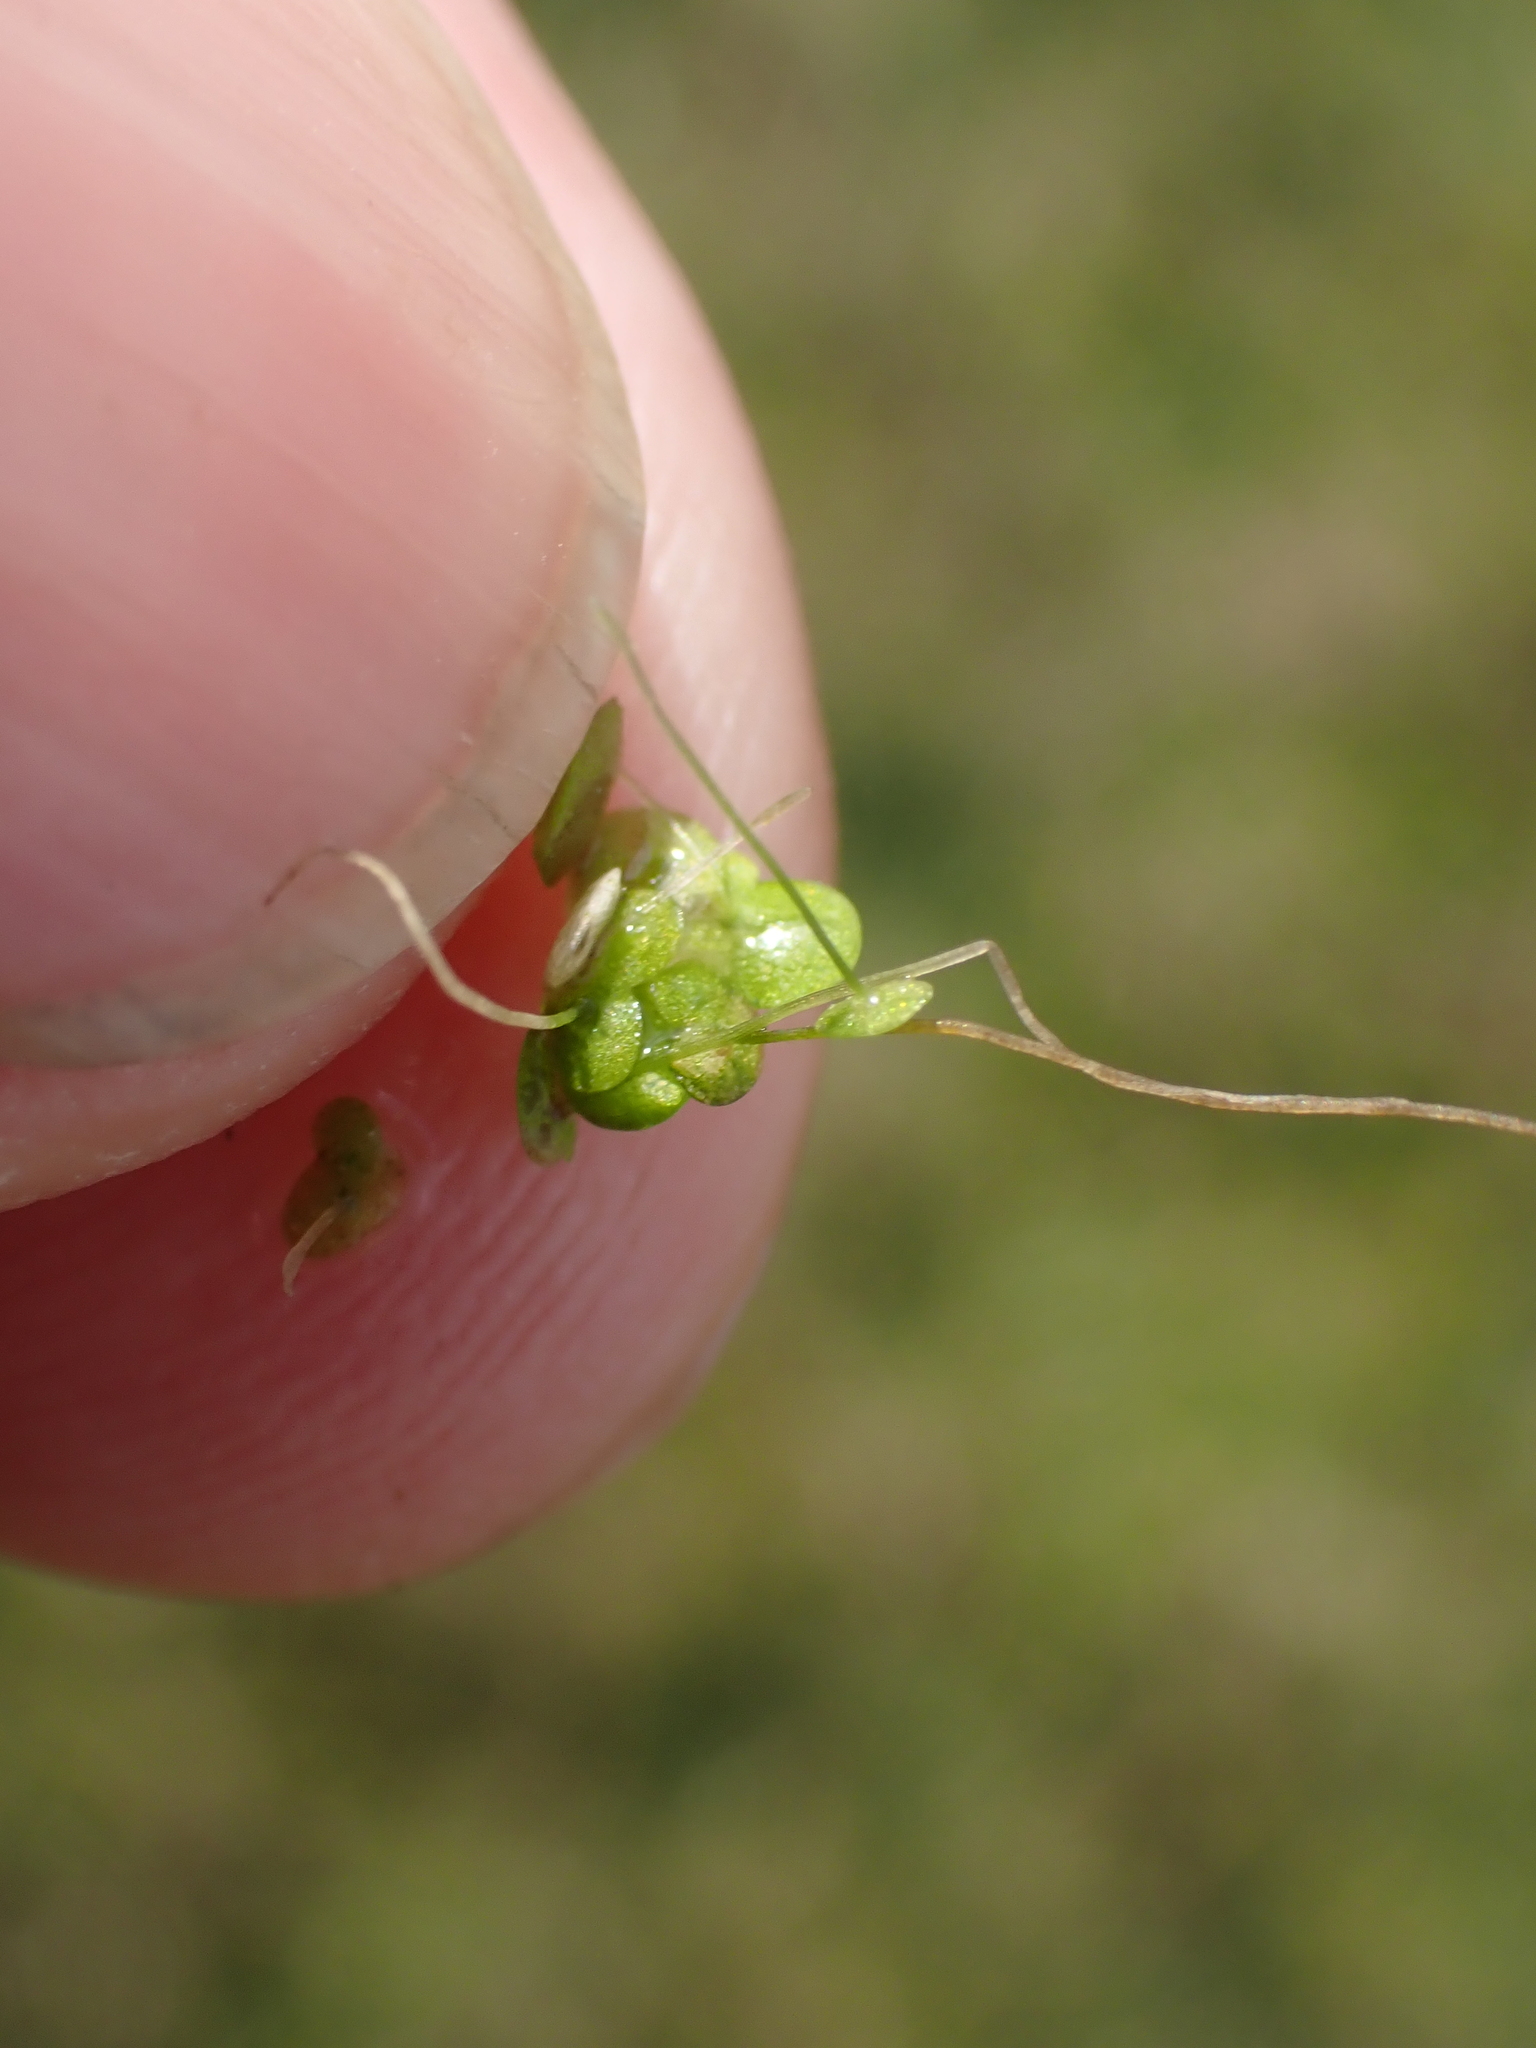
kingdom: Plantae
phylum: Tracheophyta
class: Liliopsida
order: Alismatales
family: Araceae
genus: Lemna
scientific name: Lemna minor
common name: Common duckweed
